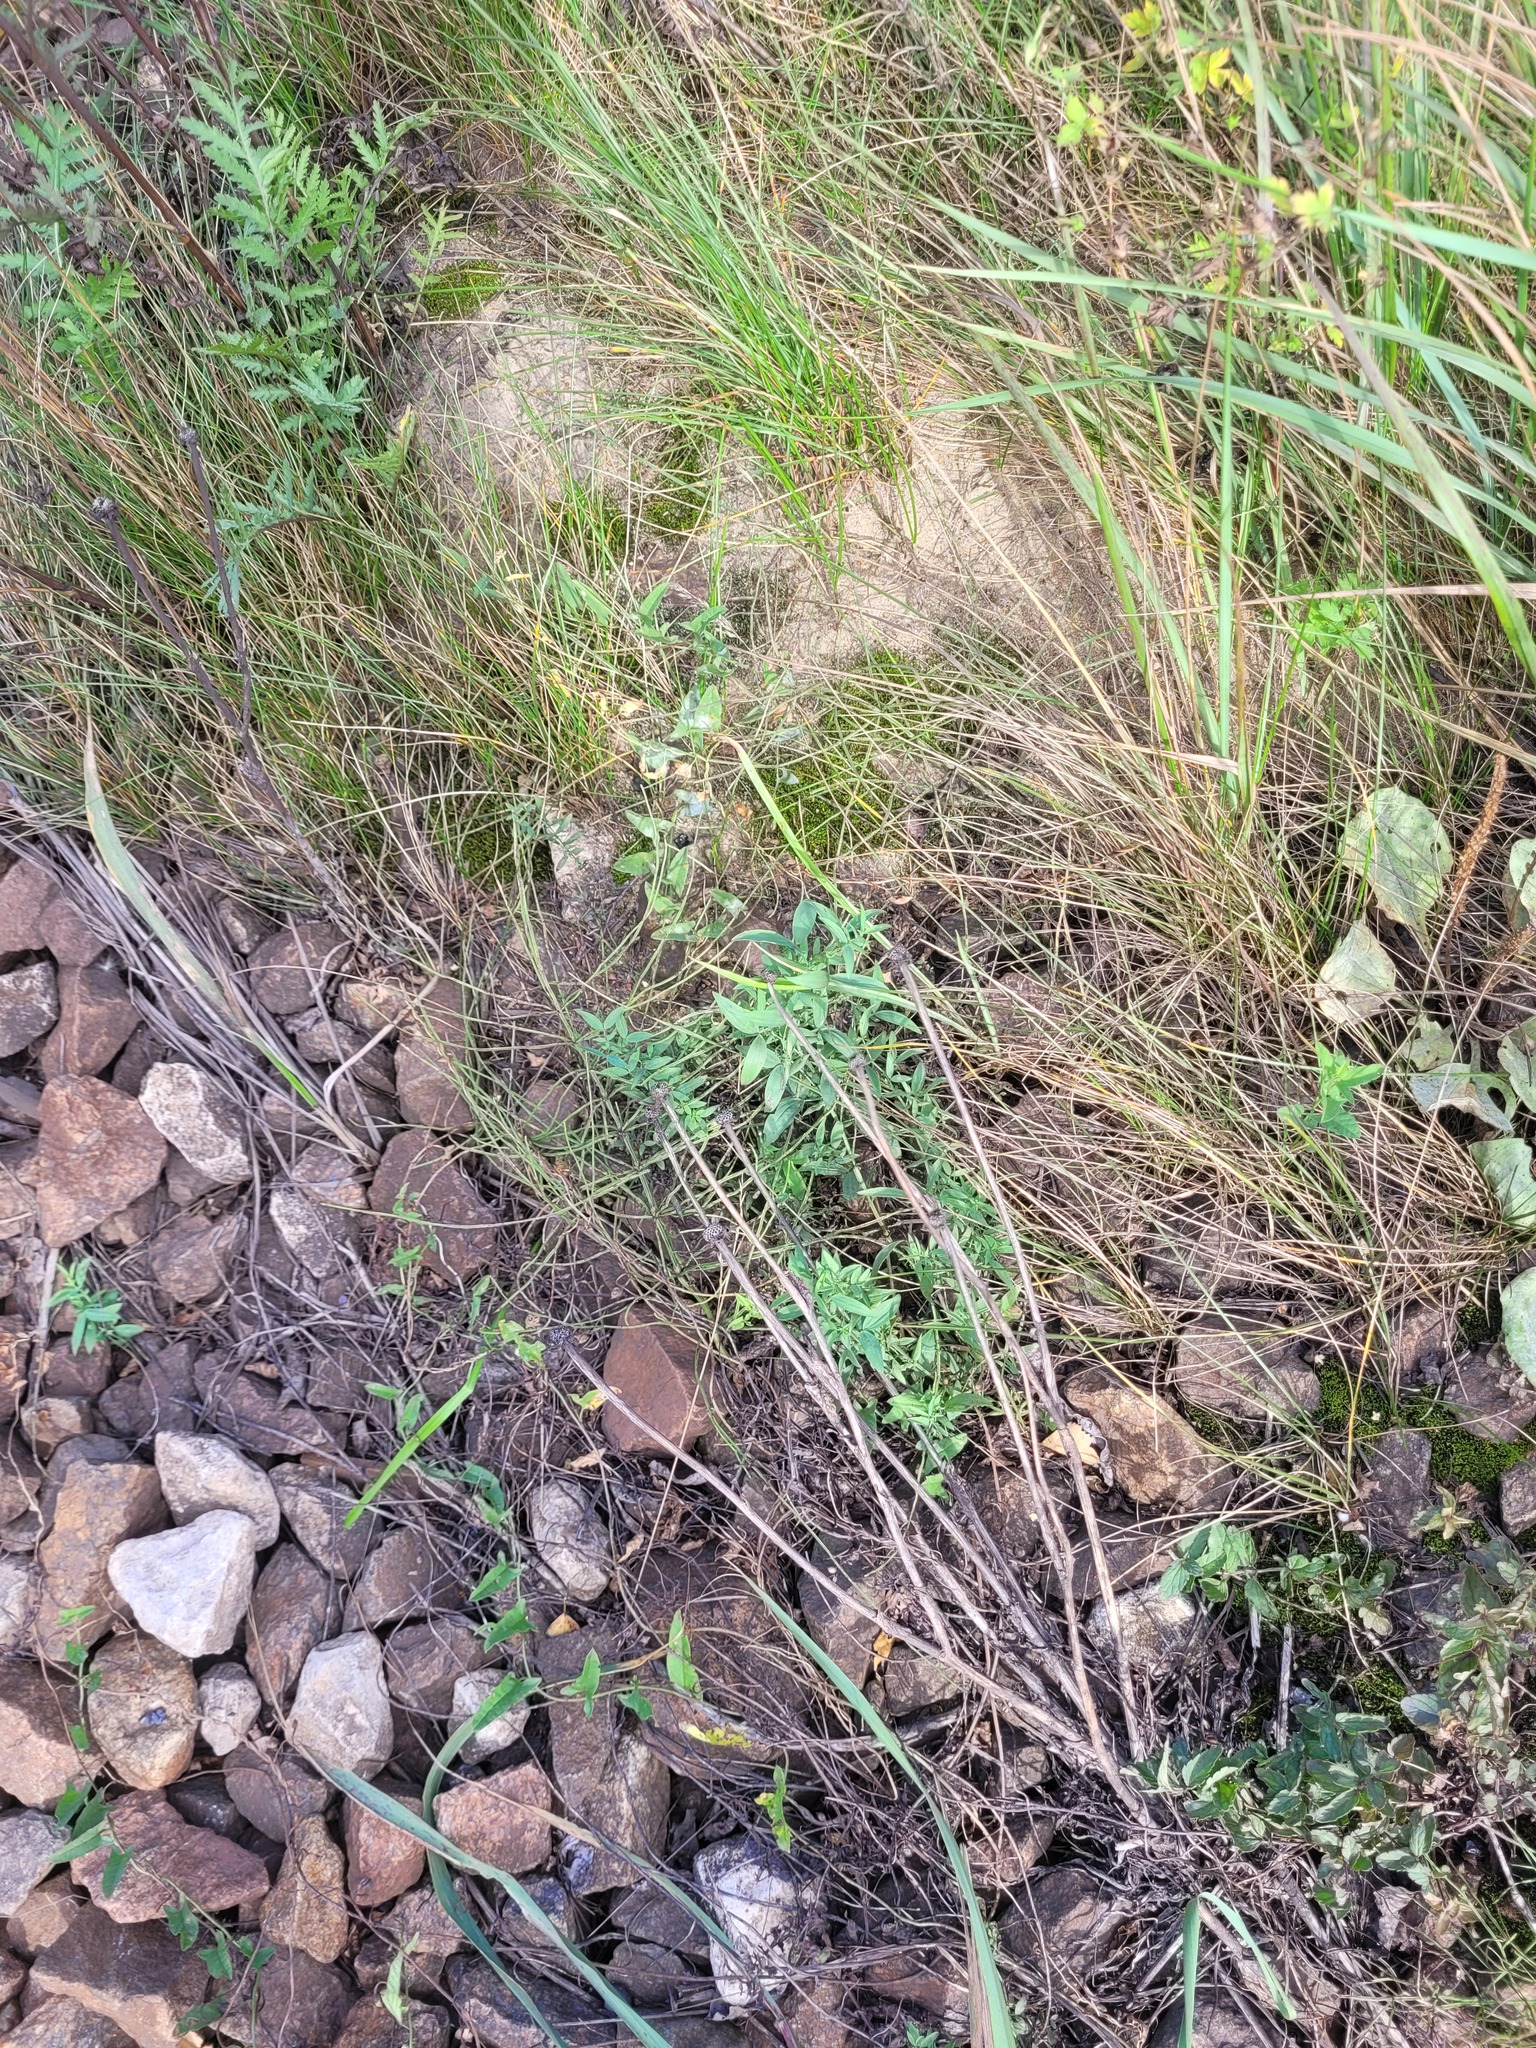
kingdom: Plantae
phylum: Tracheophyta
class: Magnoliopsida
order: Fabales
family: Fabaceae
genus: Lathyrus
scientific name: Lathyrus pratensis
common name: Meadow vetchling
